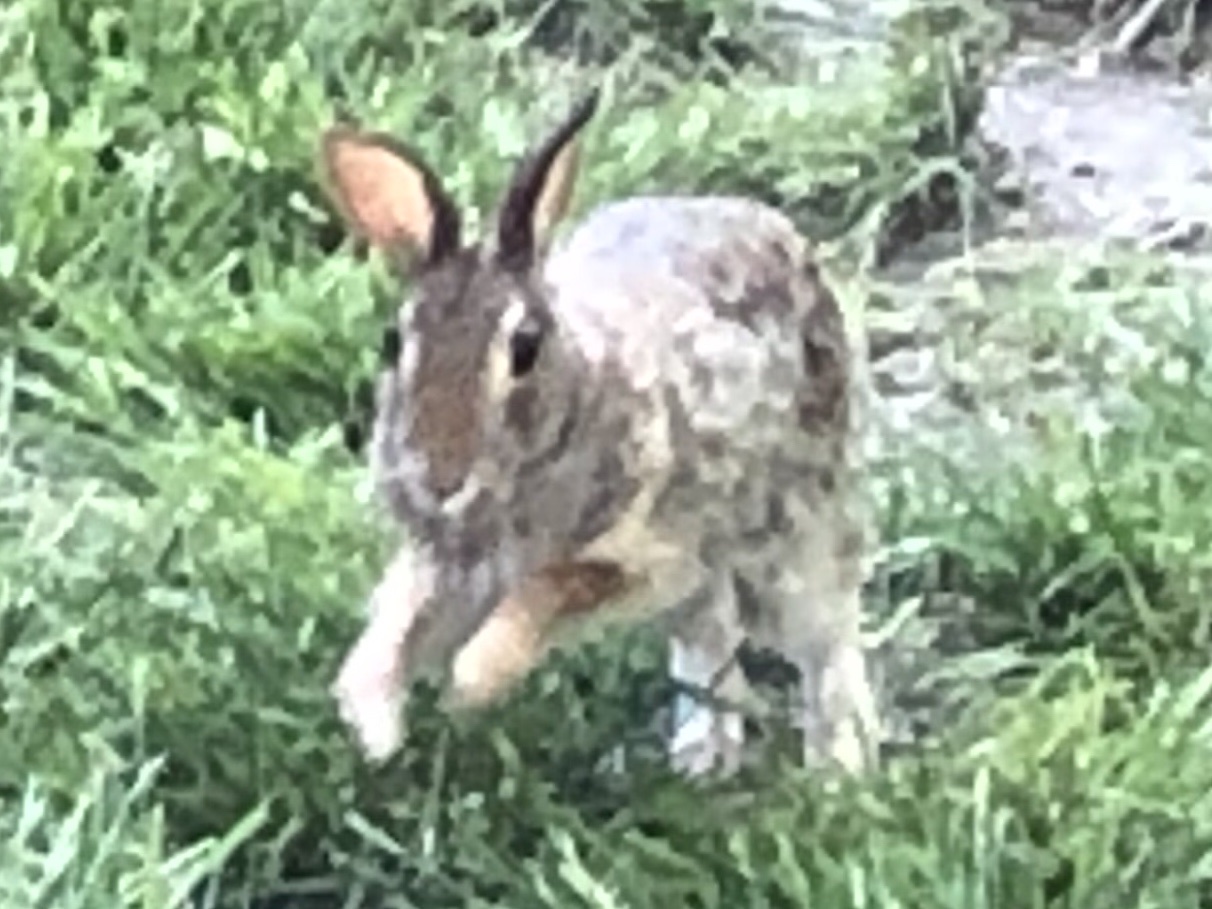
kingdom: Animalia
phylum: Chordata
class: Mammalia
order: Lagomorpha
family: Leporidae
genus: Sylvilagus
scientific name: Sylvilagus floridanus
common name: Eastern cottontail
